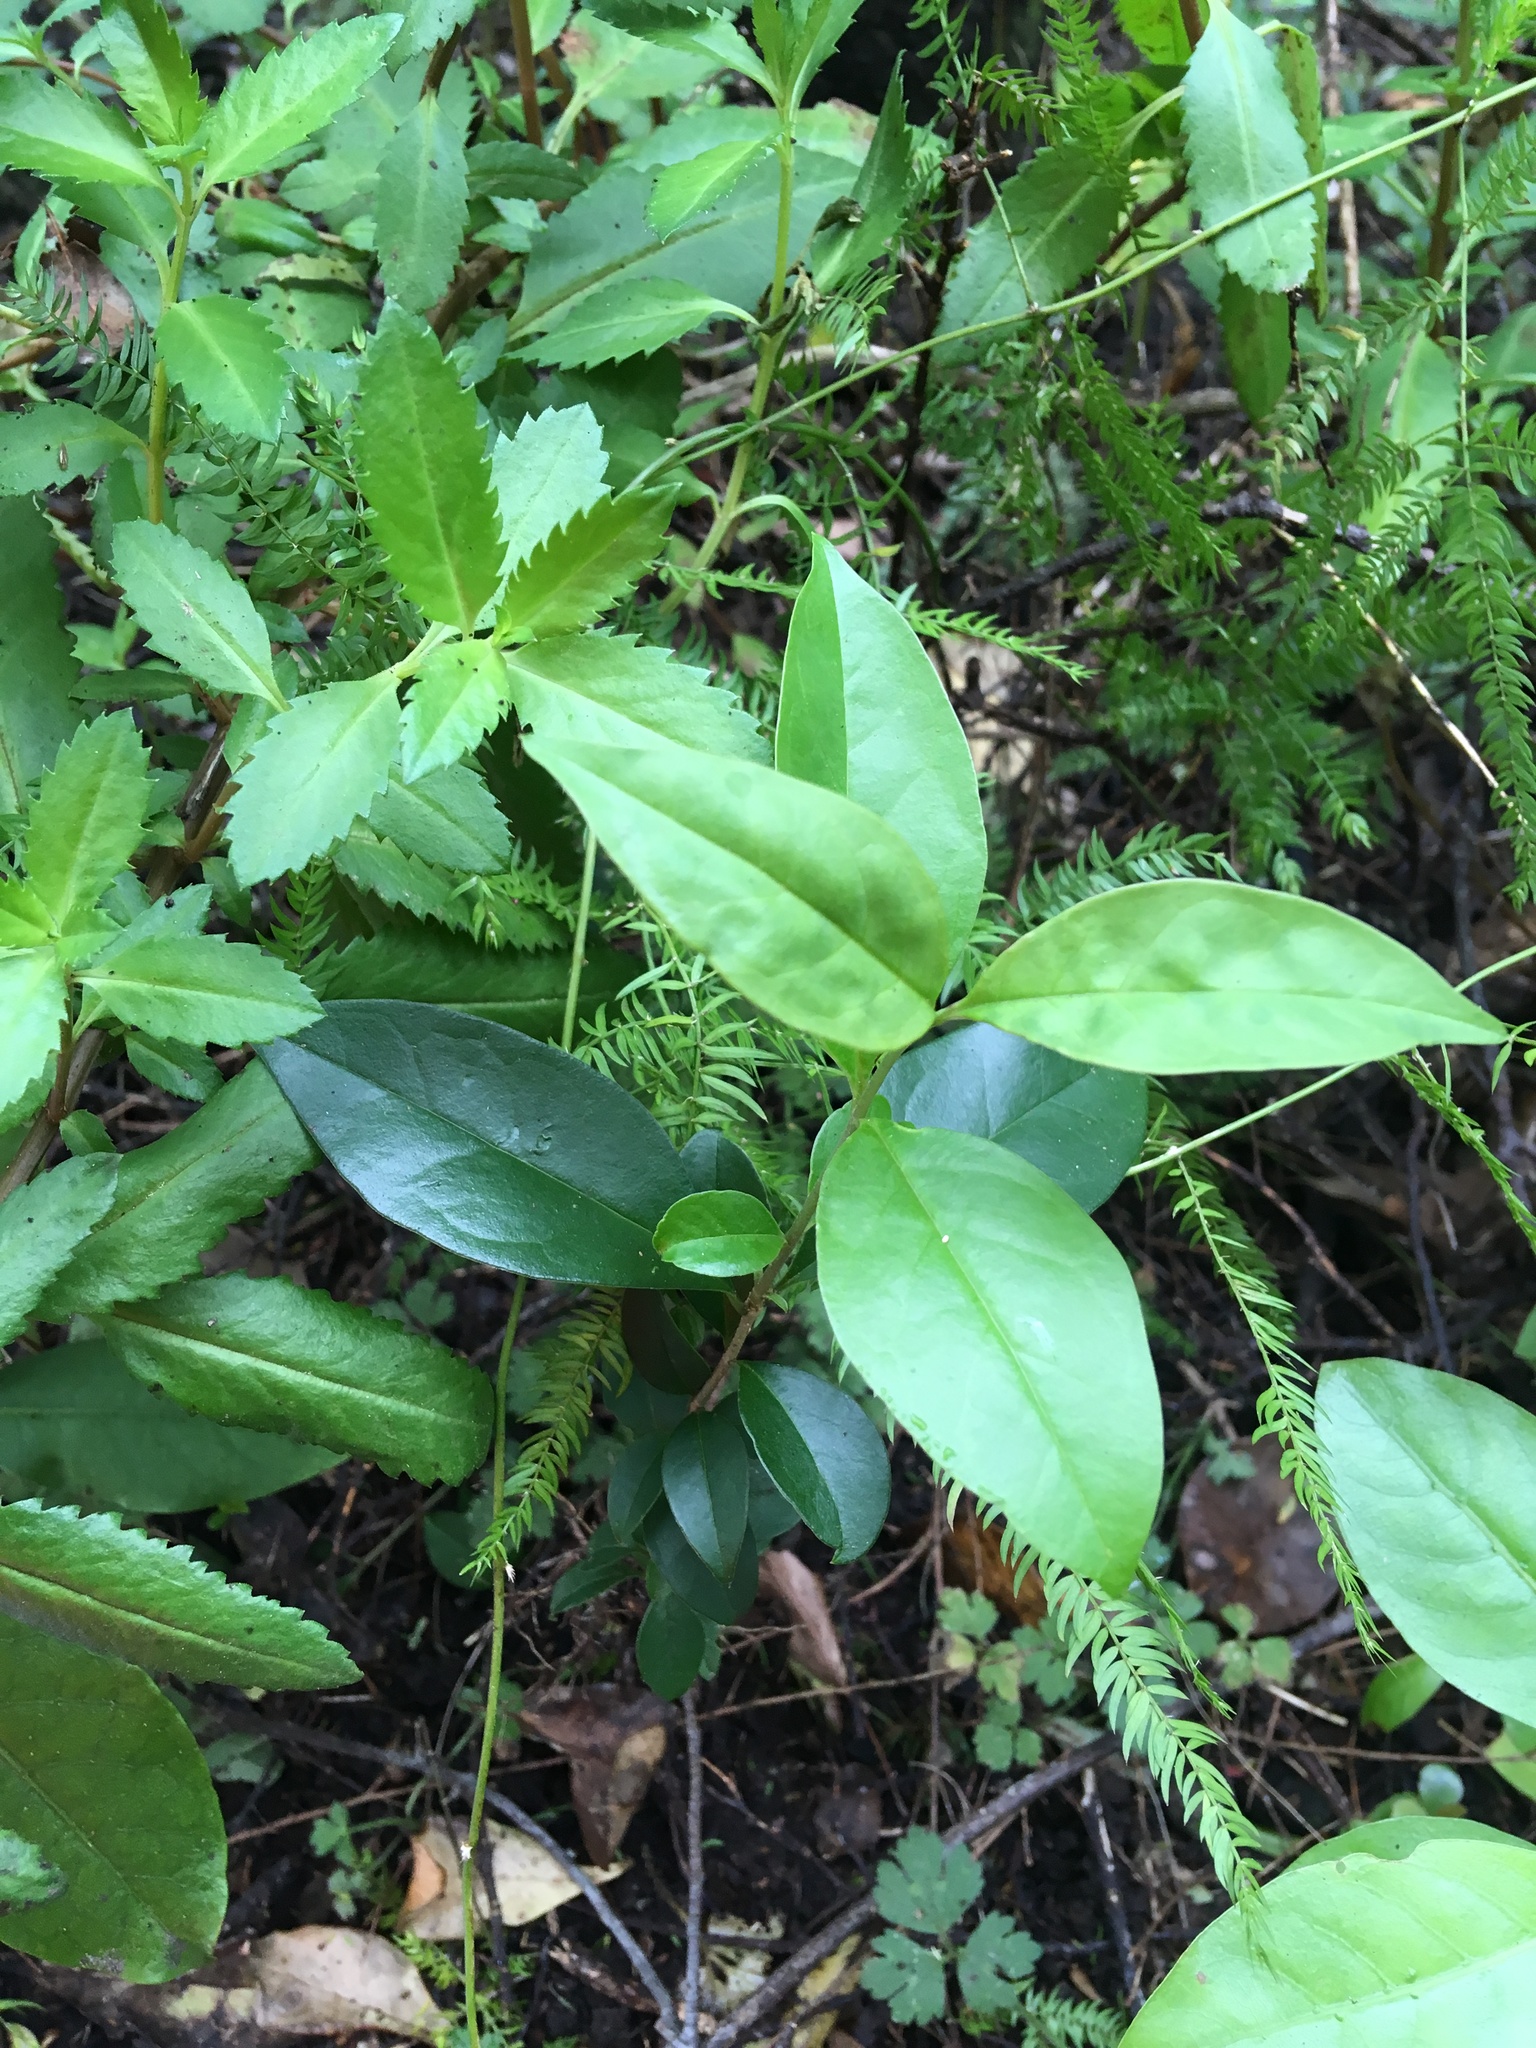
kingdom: Plantae
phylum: Tracheophyta
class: Magnoliopsida
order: Lamiales
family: Oleaceae
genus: Ligustrum
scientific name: Ligustrum lucidum
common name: Glossy privet
